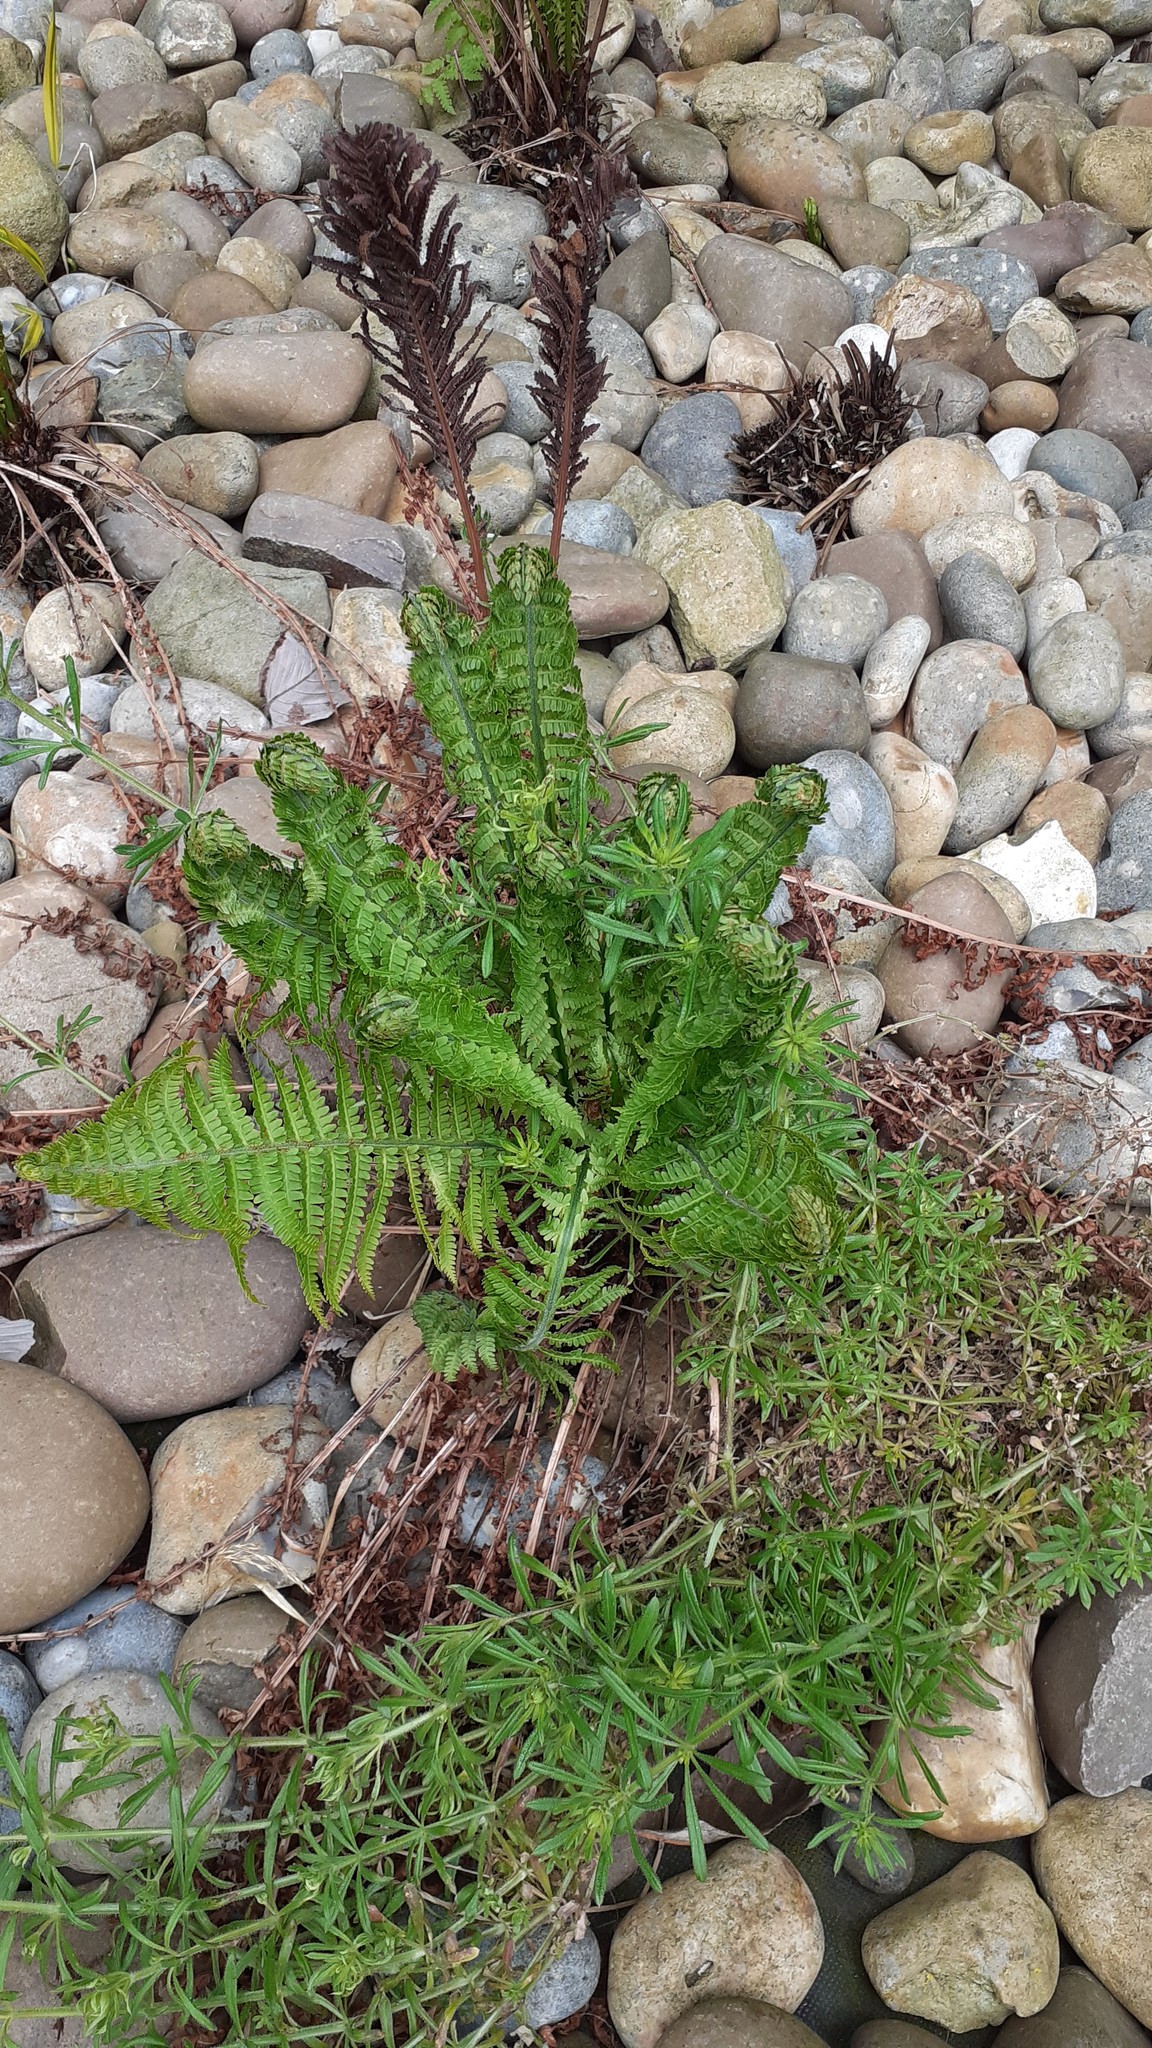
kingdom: Plantae
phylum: Tracheophyta
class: Polypodiopsida
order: Polypodiales
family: Onocleaceae
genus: Matteuccia
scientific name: Matteuccia struthiopteris
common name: Ostrich fern
